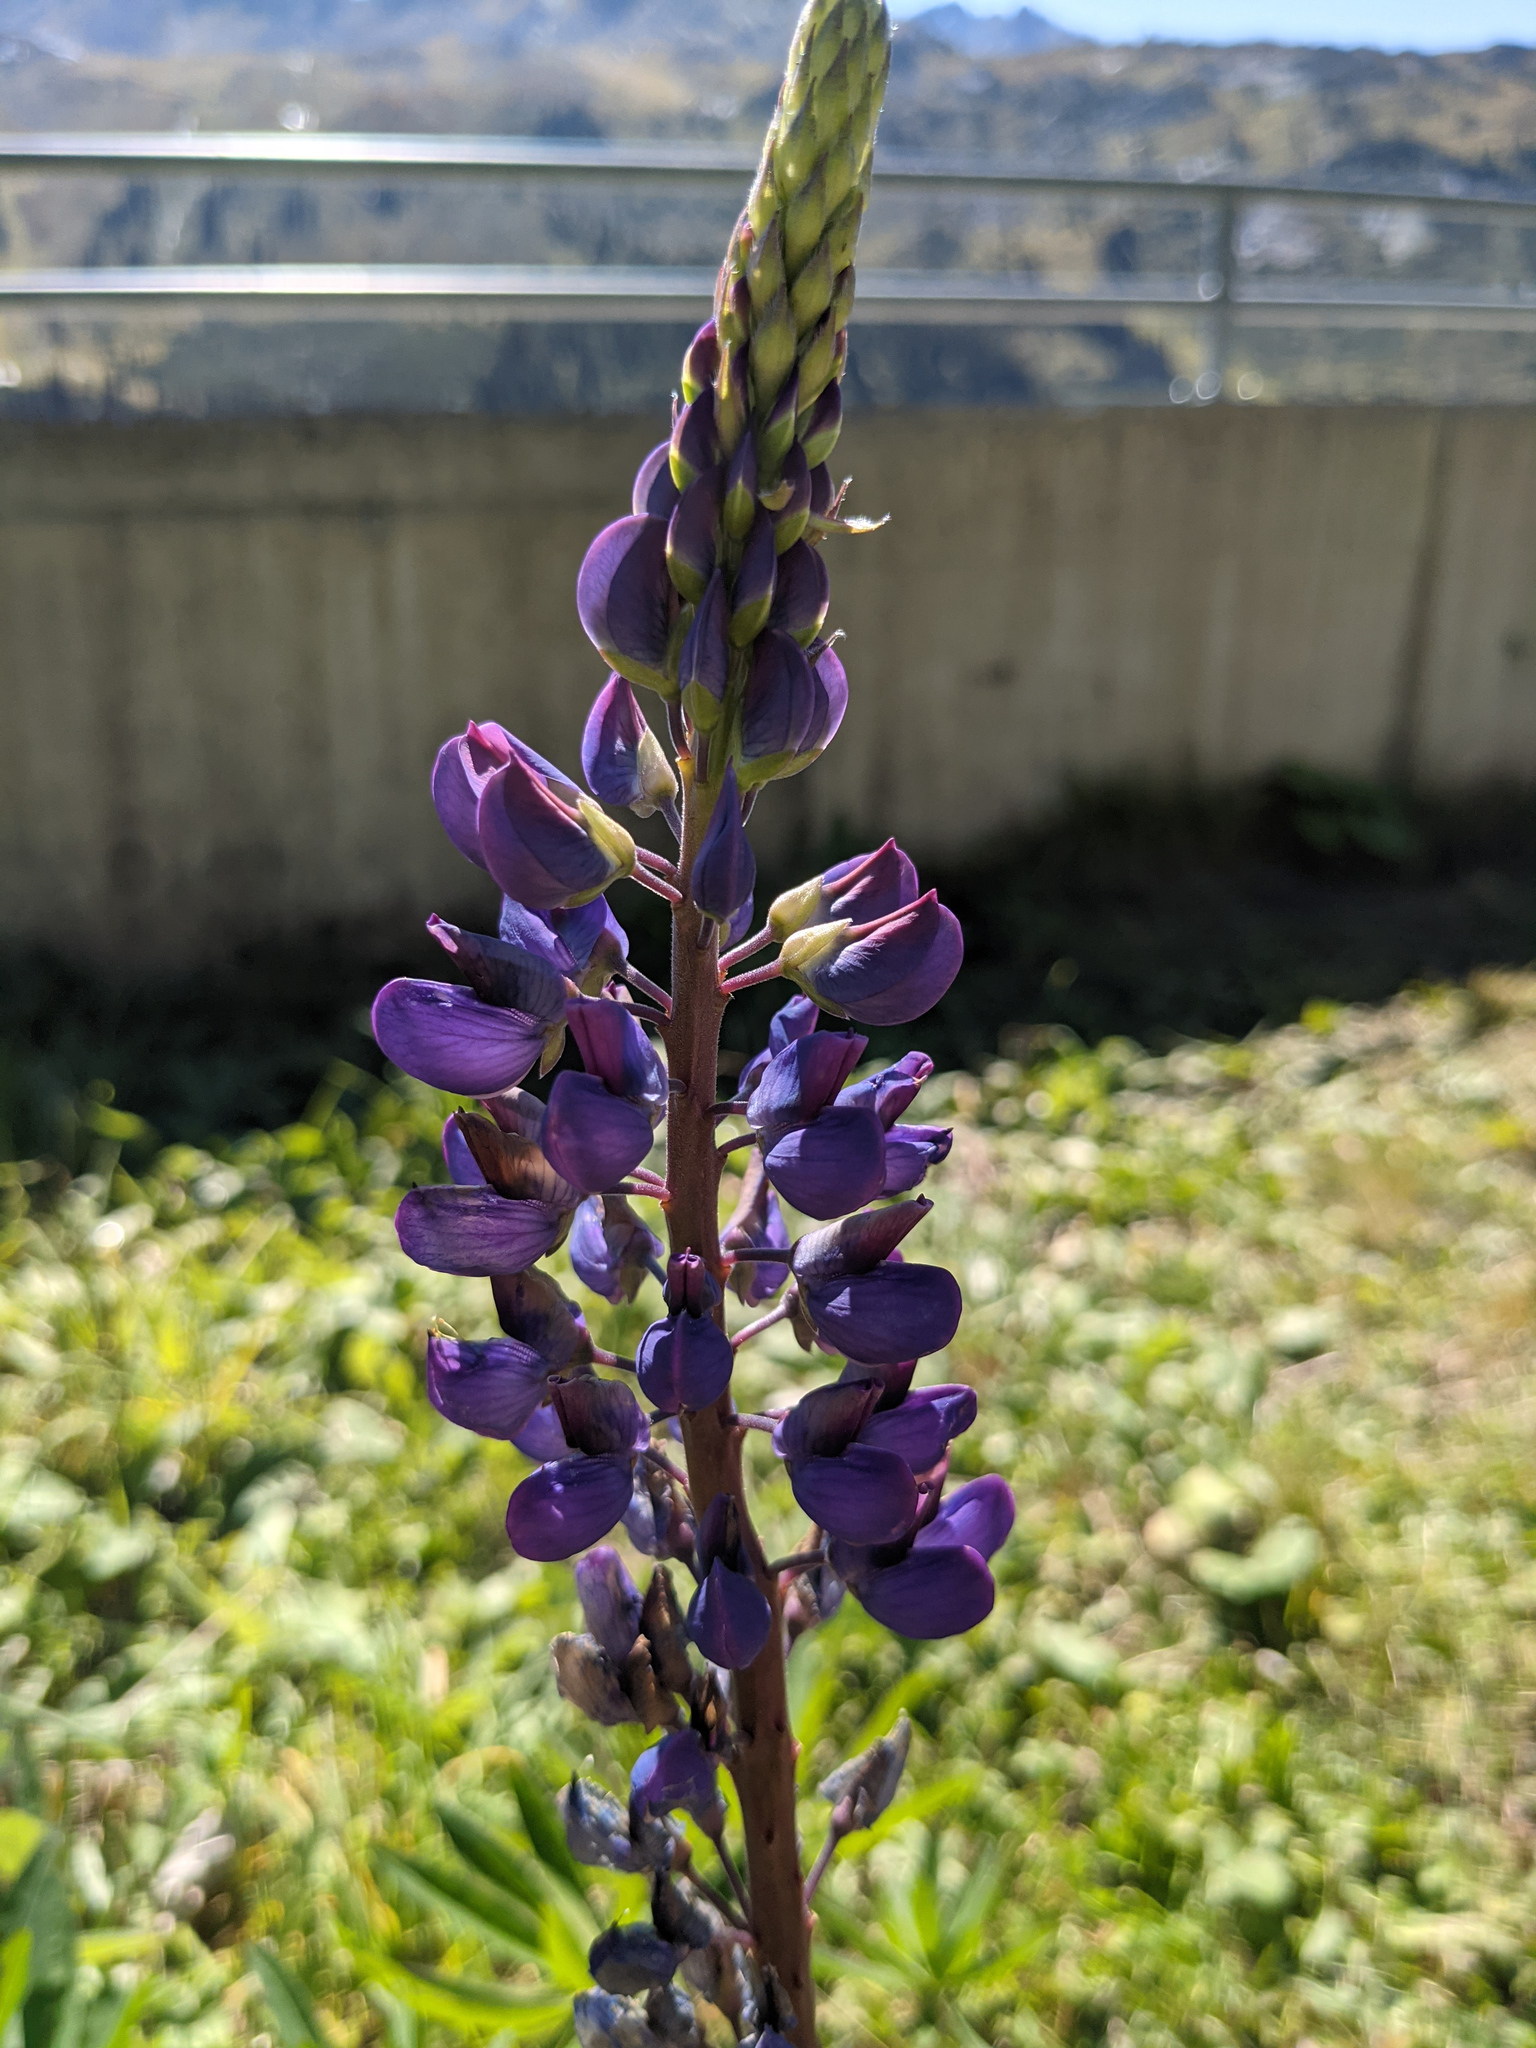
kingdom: Plantae
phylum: Tracheophyta
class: Magnoliopsida
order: Fabales
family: Fabaceae
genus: Lupinus
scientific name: Lupinus polyphyllus
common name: Garden lupin
